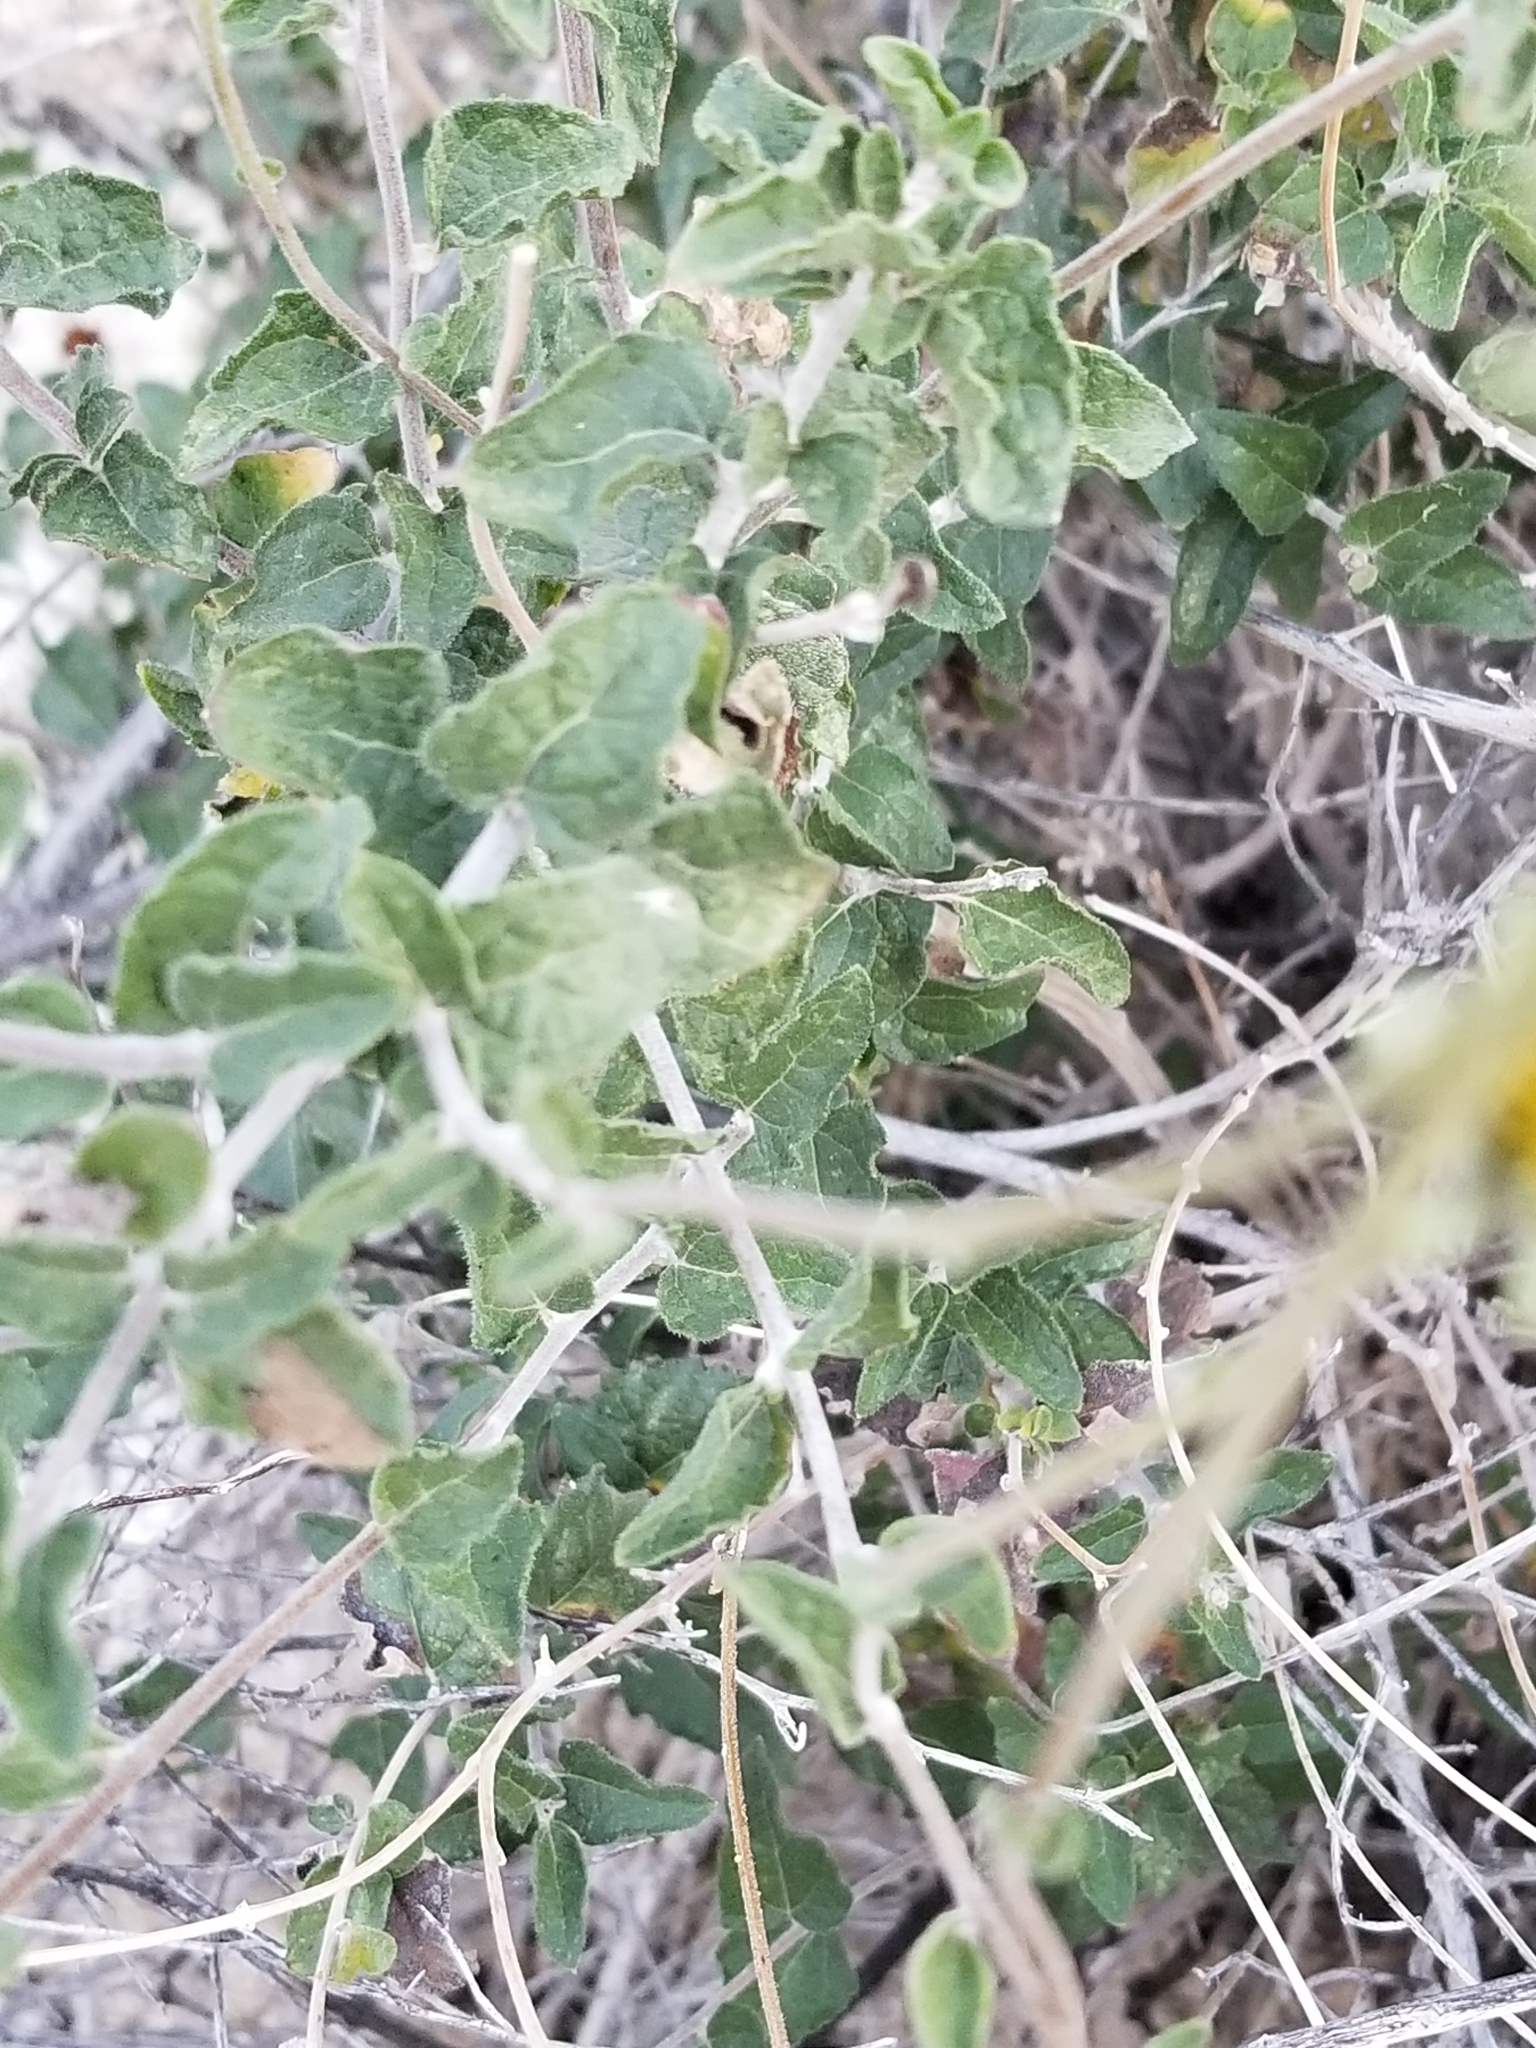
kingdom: Plantae
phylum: Tracheophyta
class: Magnoliopsida
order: Asterales
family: Asteraceae
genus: Bahiopsis
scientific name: Bahiopsis parishii
